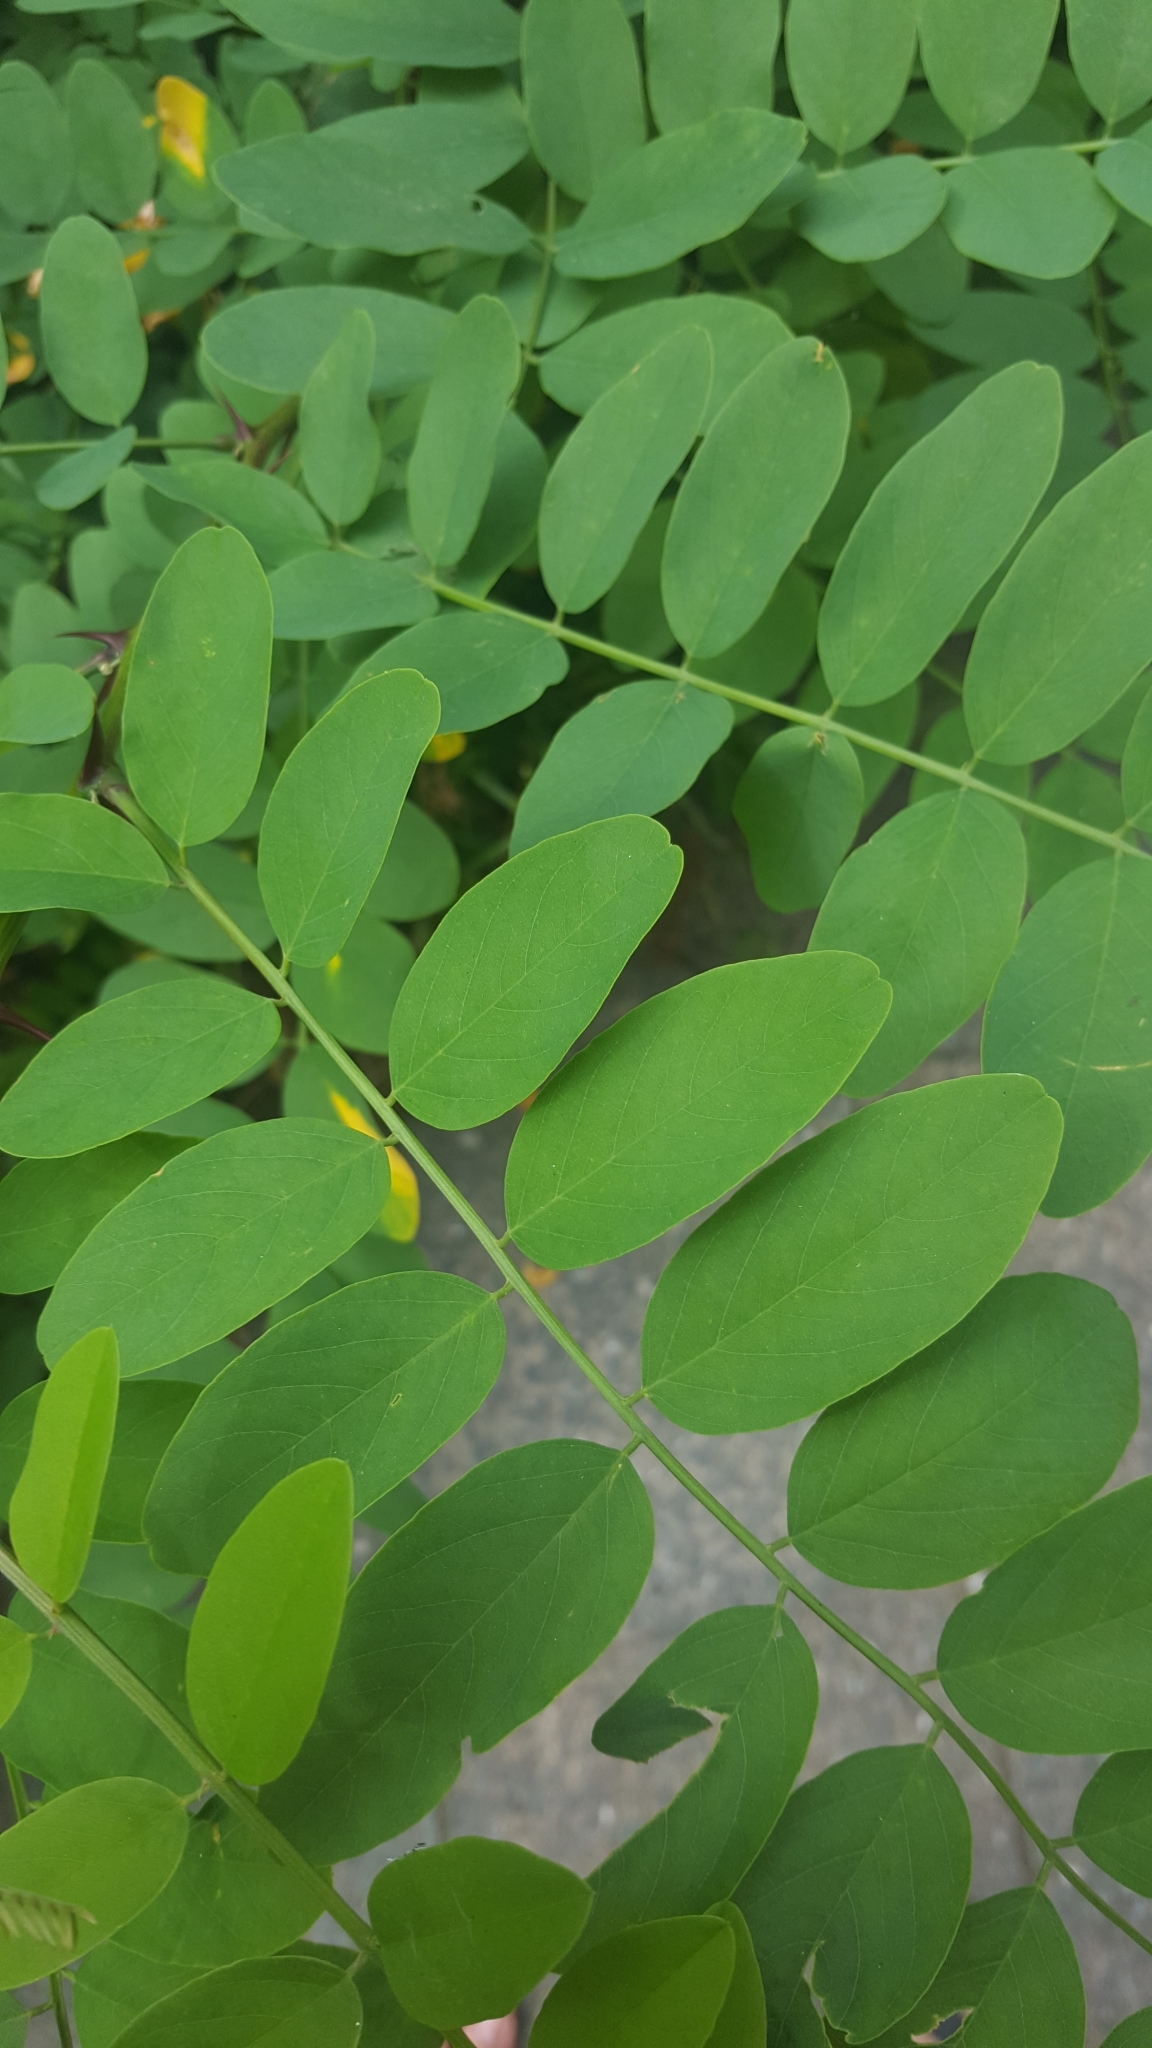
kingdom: Plantae
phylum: Tracheophyta
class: Magnoliopsida
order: Fabales
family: Fabaceae
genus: Robinia
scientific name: Robinia pseudoacacia
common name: Black locust
